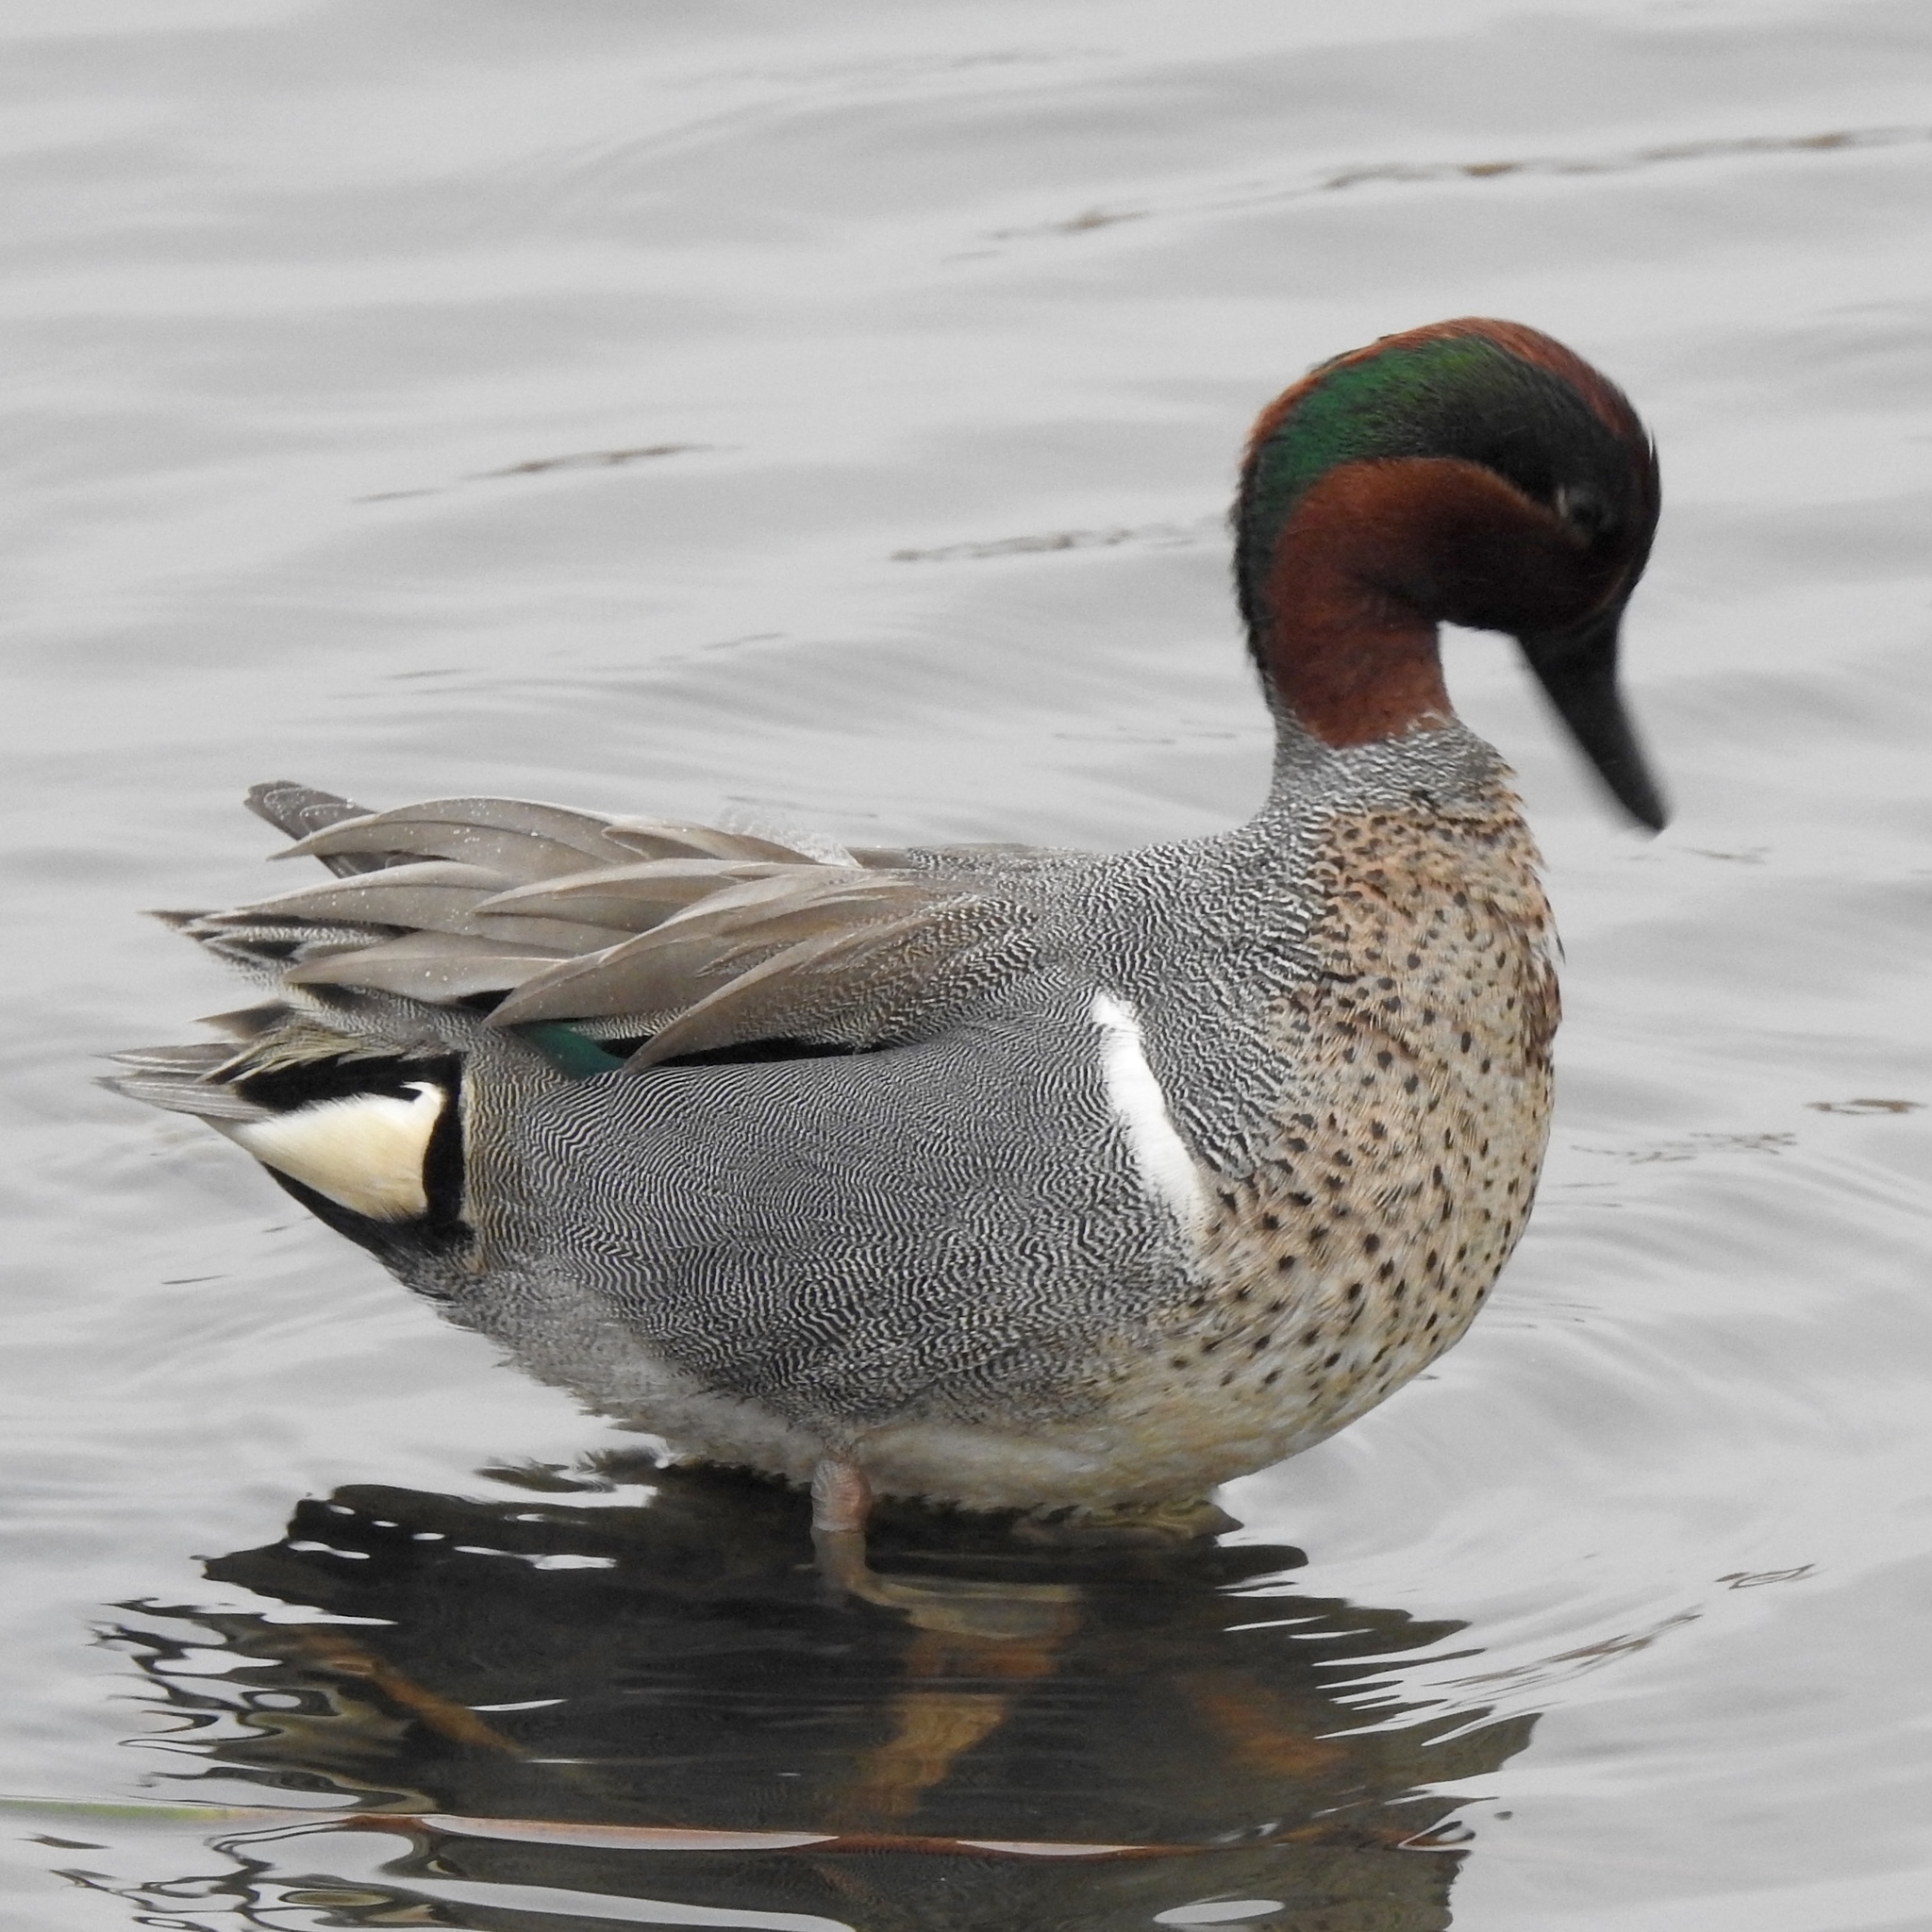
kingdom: Animalia
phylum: Chordata
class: Aves
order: Anseriformes
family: Anatidae
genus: Anas
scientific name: Anas crecca
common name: Eurasian teal
